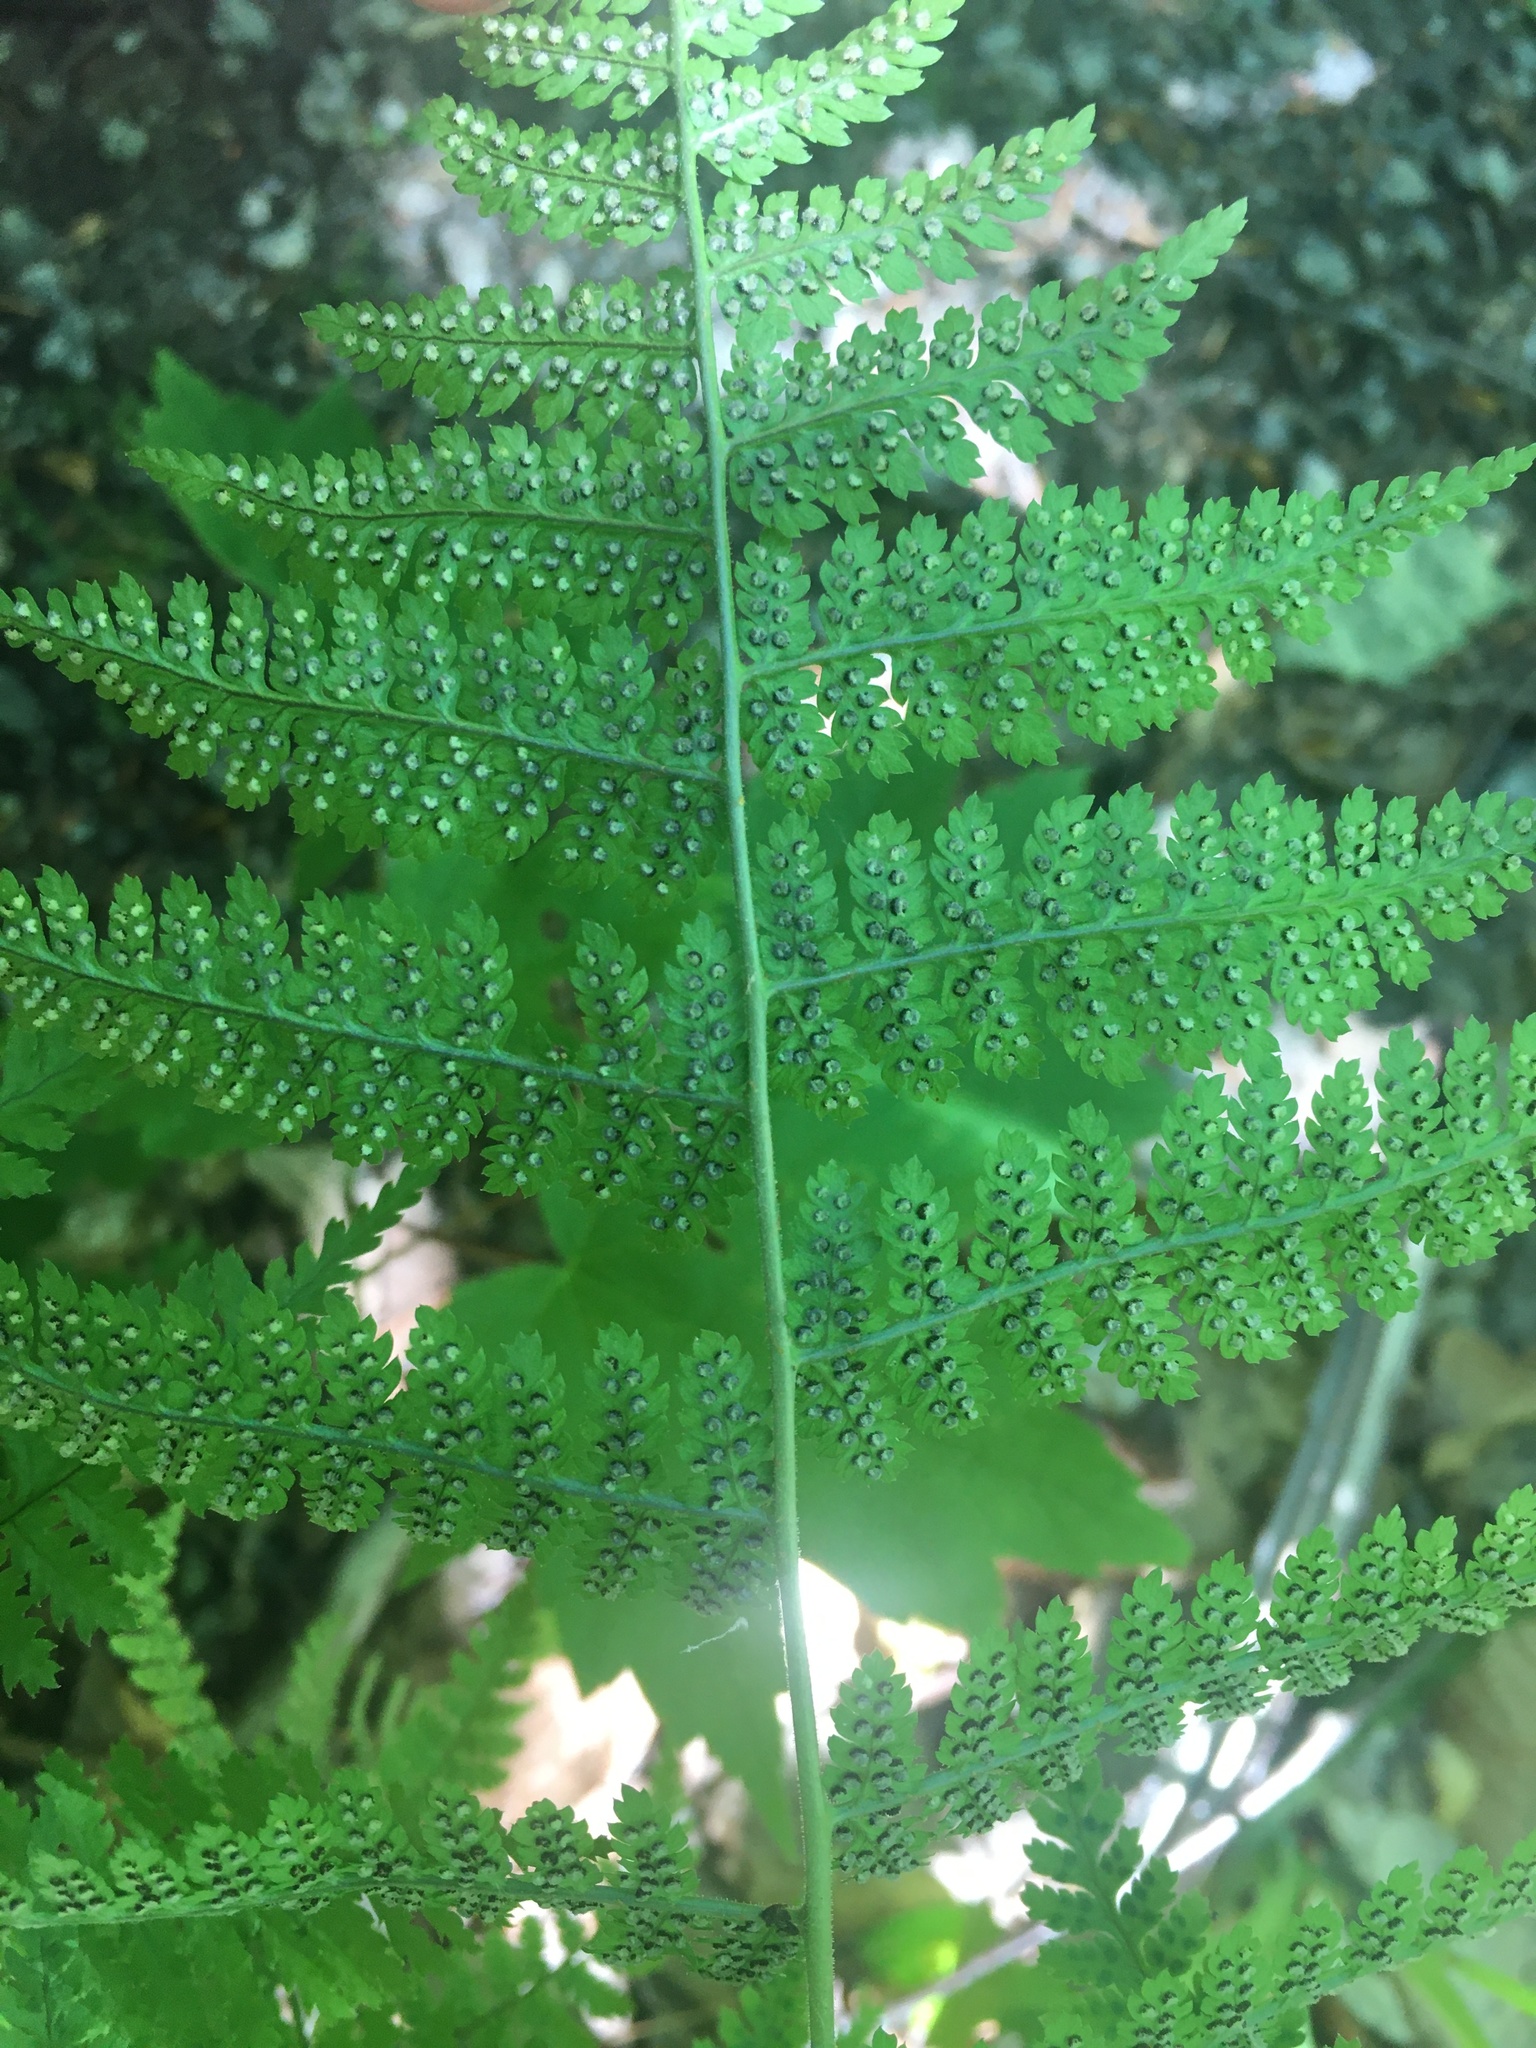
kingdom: Plantae
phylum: Tracheophyta
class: Polypodiopsida
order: Polypodiales
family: Dryopteridaceae
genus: Dryopteris
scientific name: Dryopteris intermedia
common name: Evergreen wood fern
